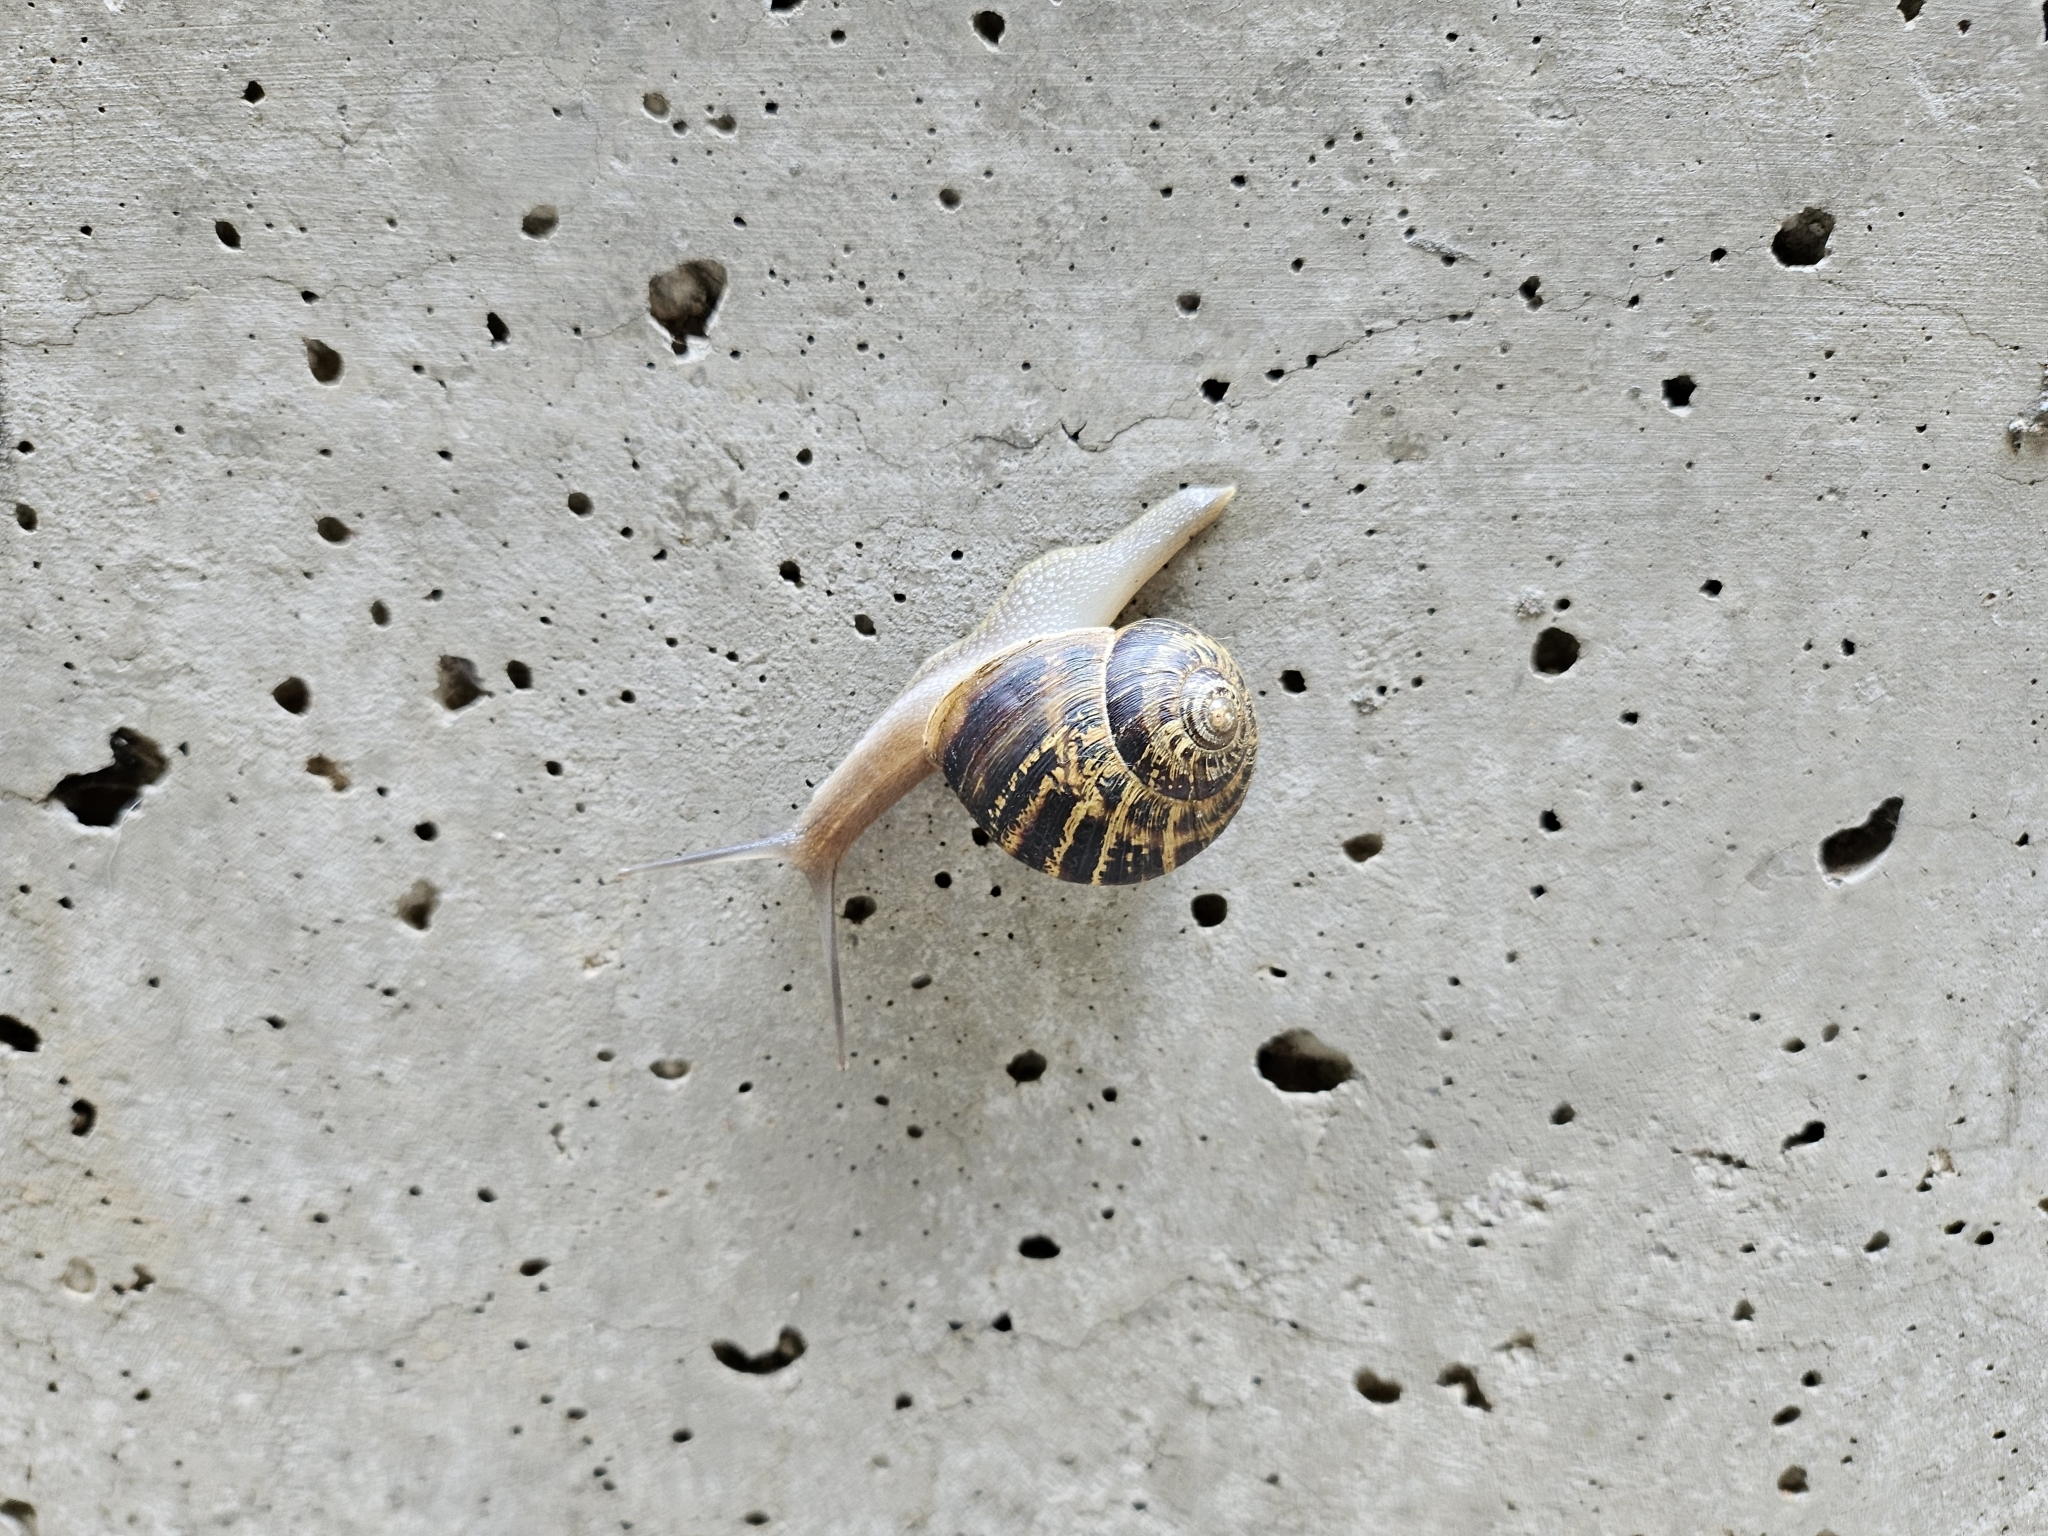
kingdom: Animalia
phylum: Mollusca
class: Gastropoda
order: Stylommatophora
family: Helicidae
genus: Cornu
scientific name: Cornu aspersum
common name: Brown garden snail
